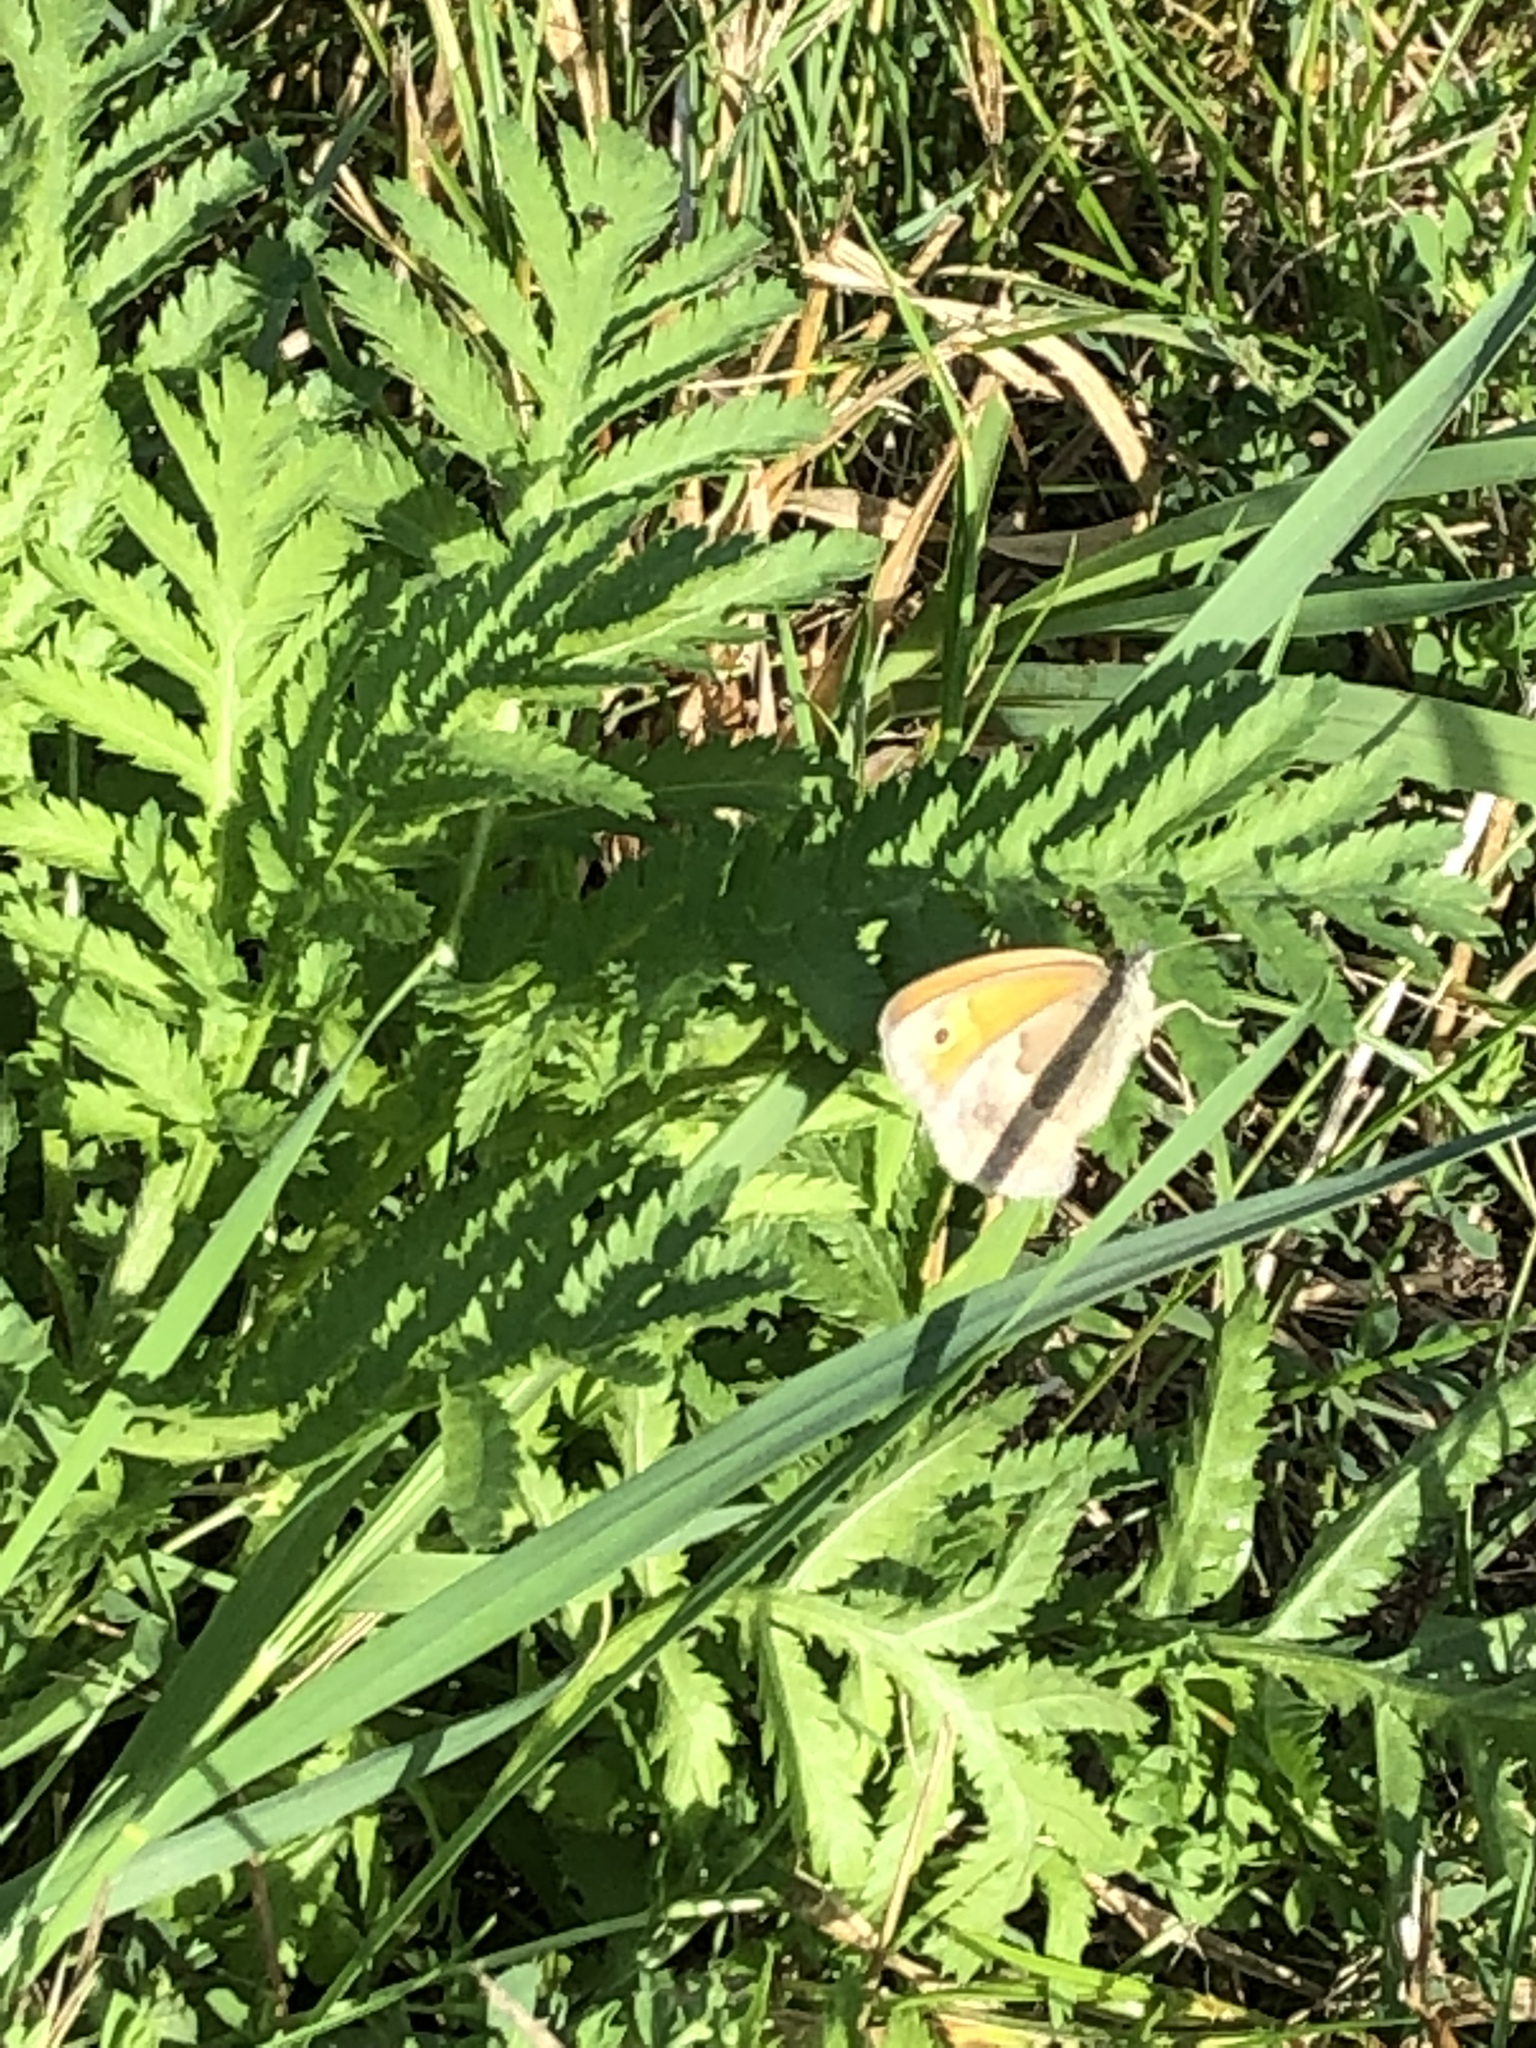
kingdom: Animalia
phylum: Arthropoda
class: Insecta
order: Lepidoptera
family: Nymphalidae
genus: Coenonympha
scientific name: Coenonympha pamphilus
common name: Small heath
